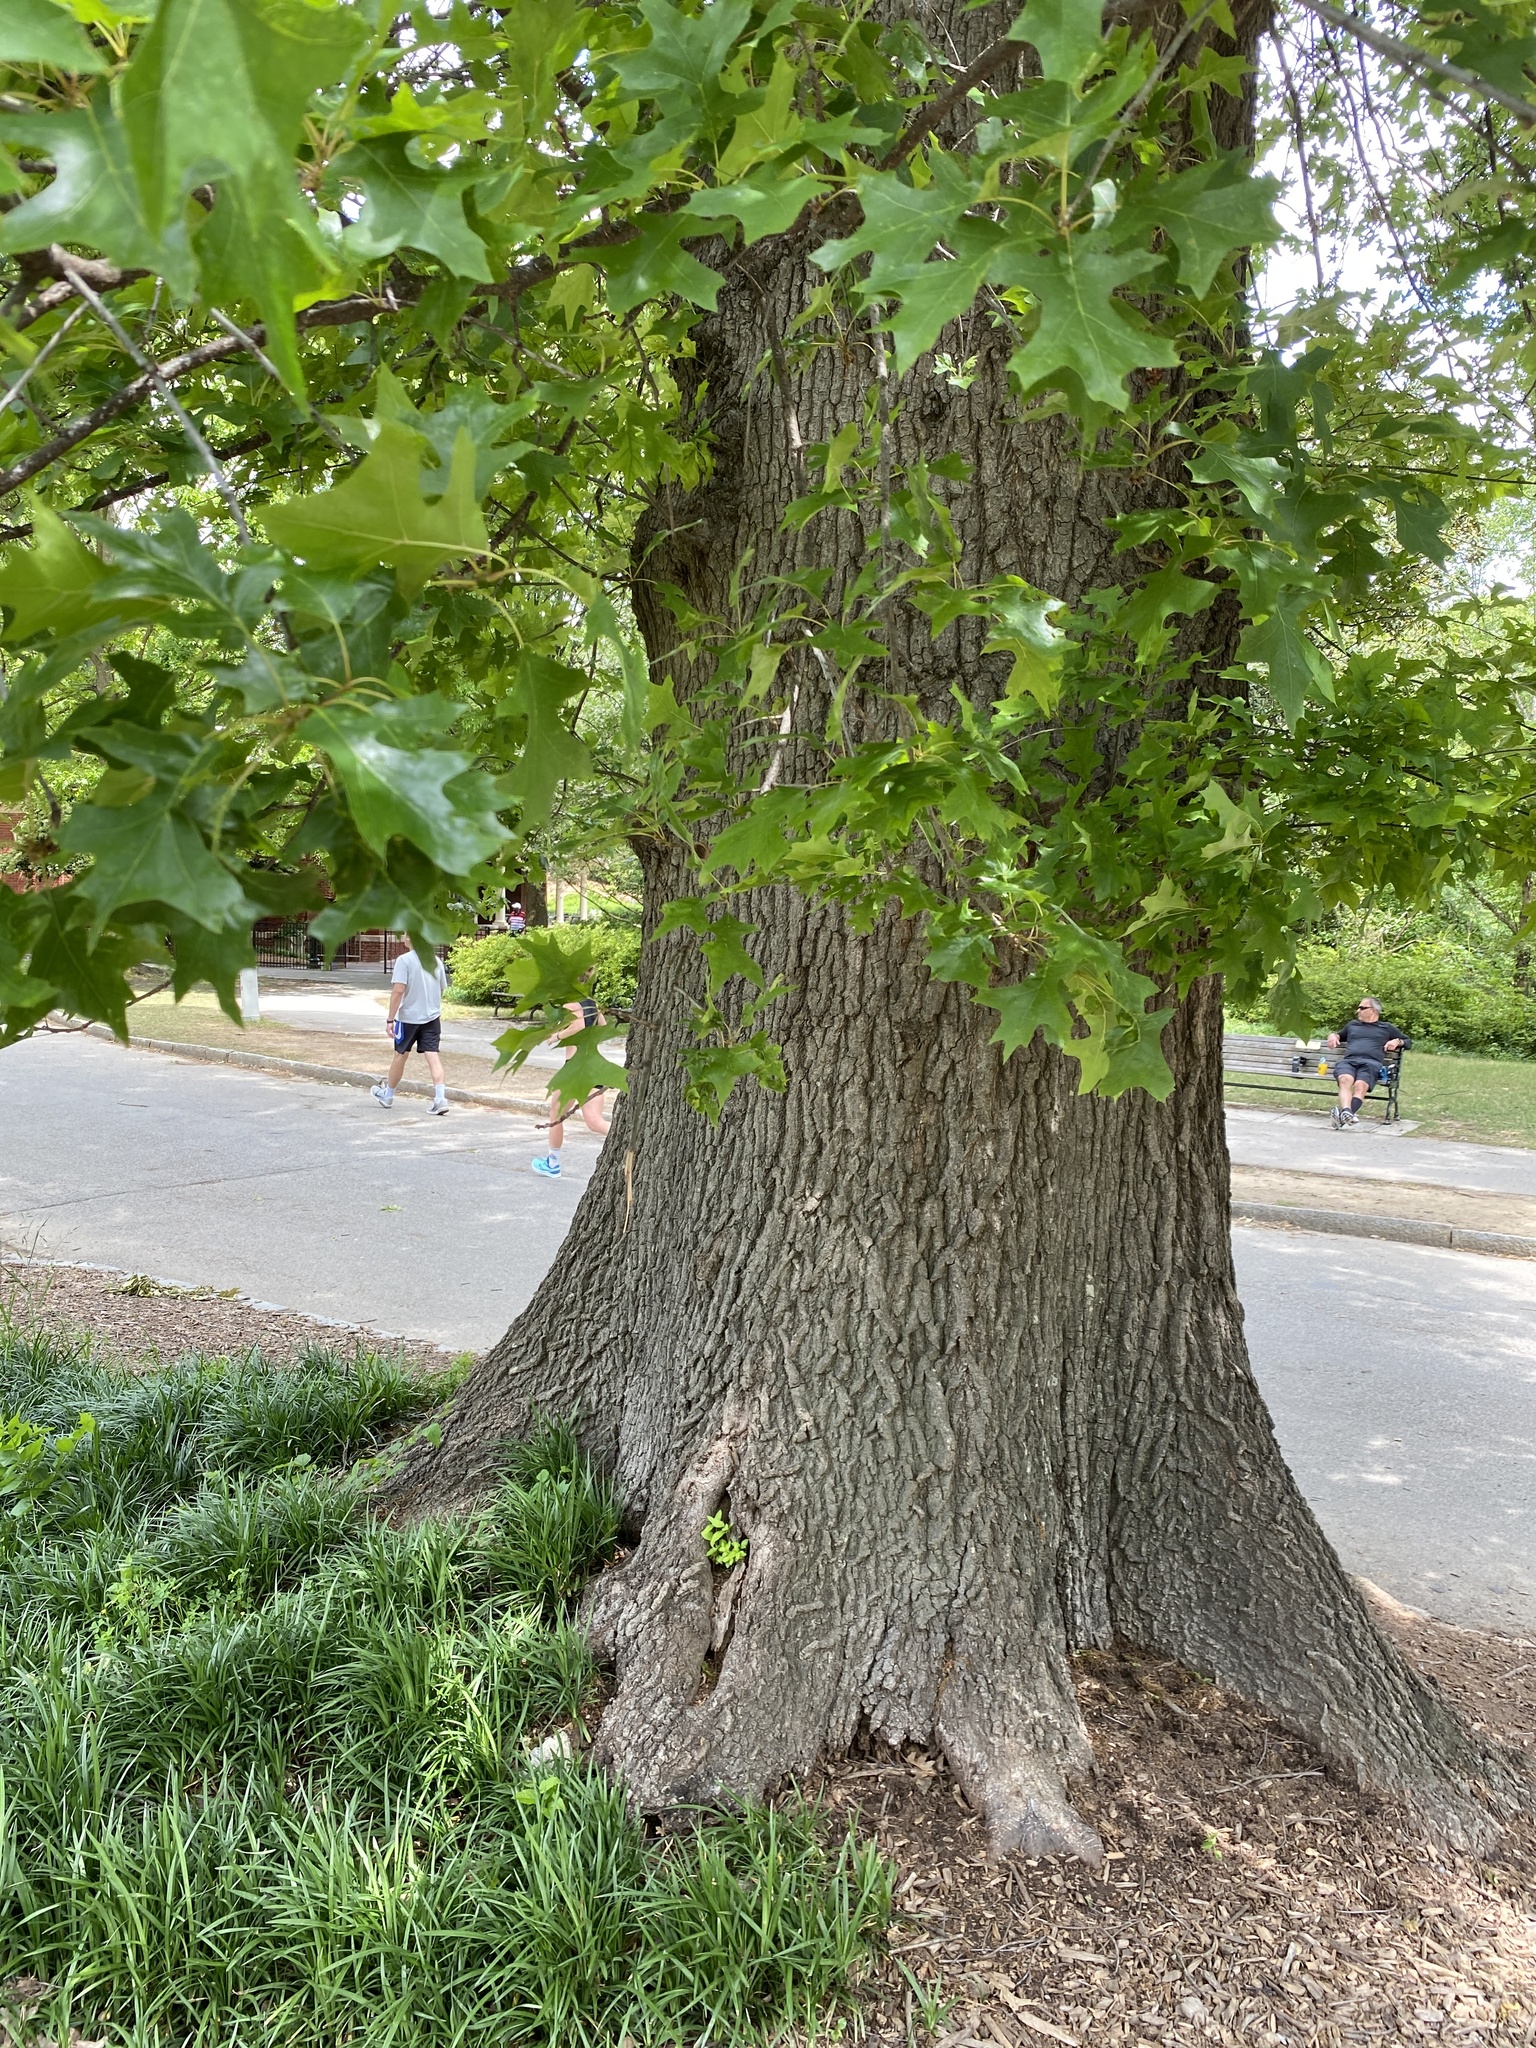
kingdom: Plantae
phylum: Tracheophyta
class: Magnoliopsida
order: Fagales
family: Fagaceae
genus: Quercus
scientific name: Quercus pagoda
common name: Cherrybark oak
